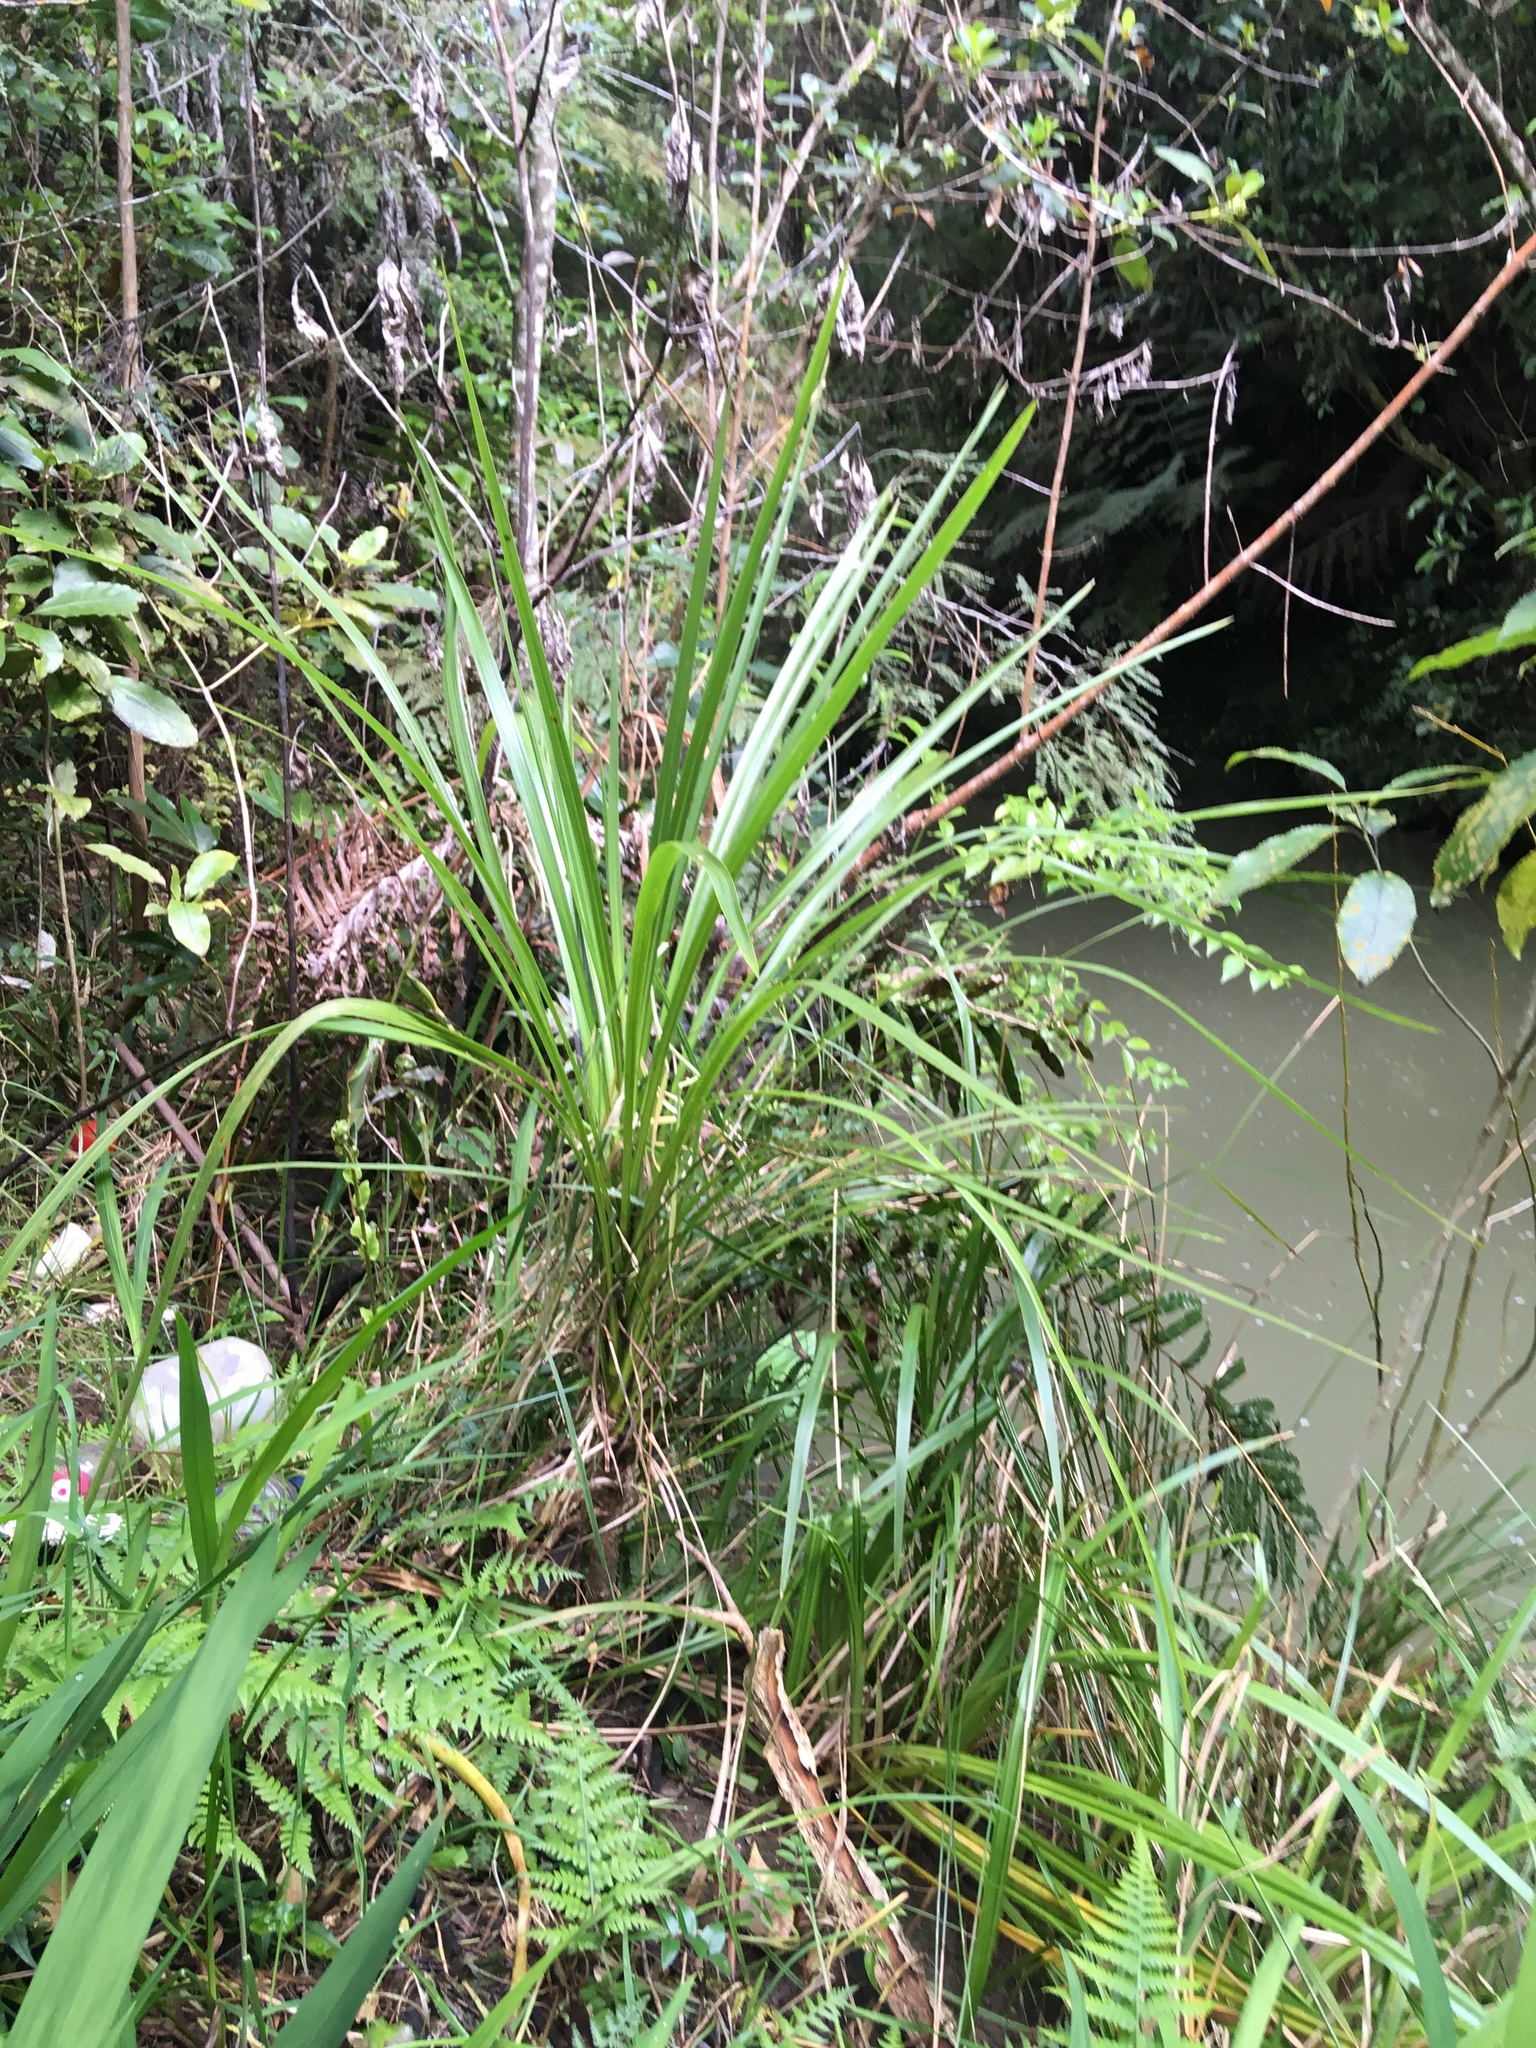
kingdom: Plantae
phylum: Tracheophyta
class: Liliopsida
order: Asparagales
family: Asparagaceae
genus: Cordyline
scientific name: Cordyline australis
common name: Cabbage-palm
